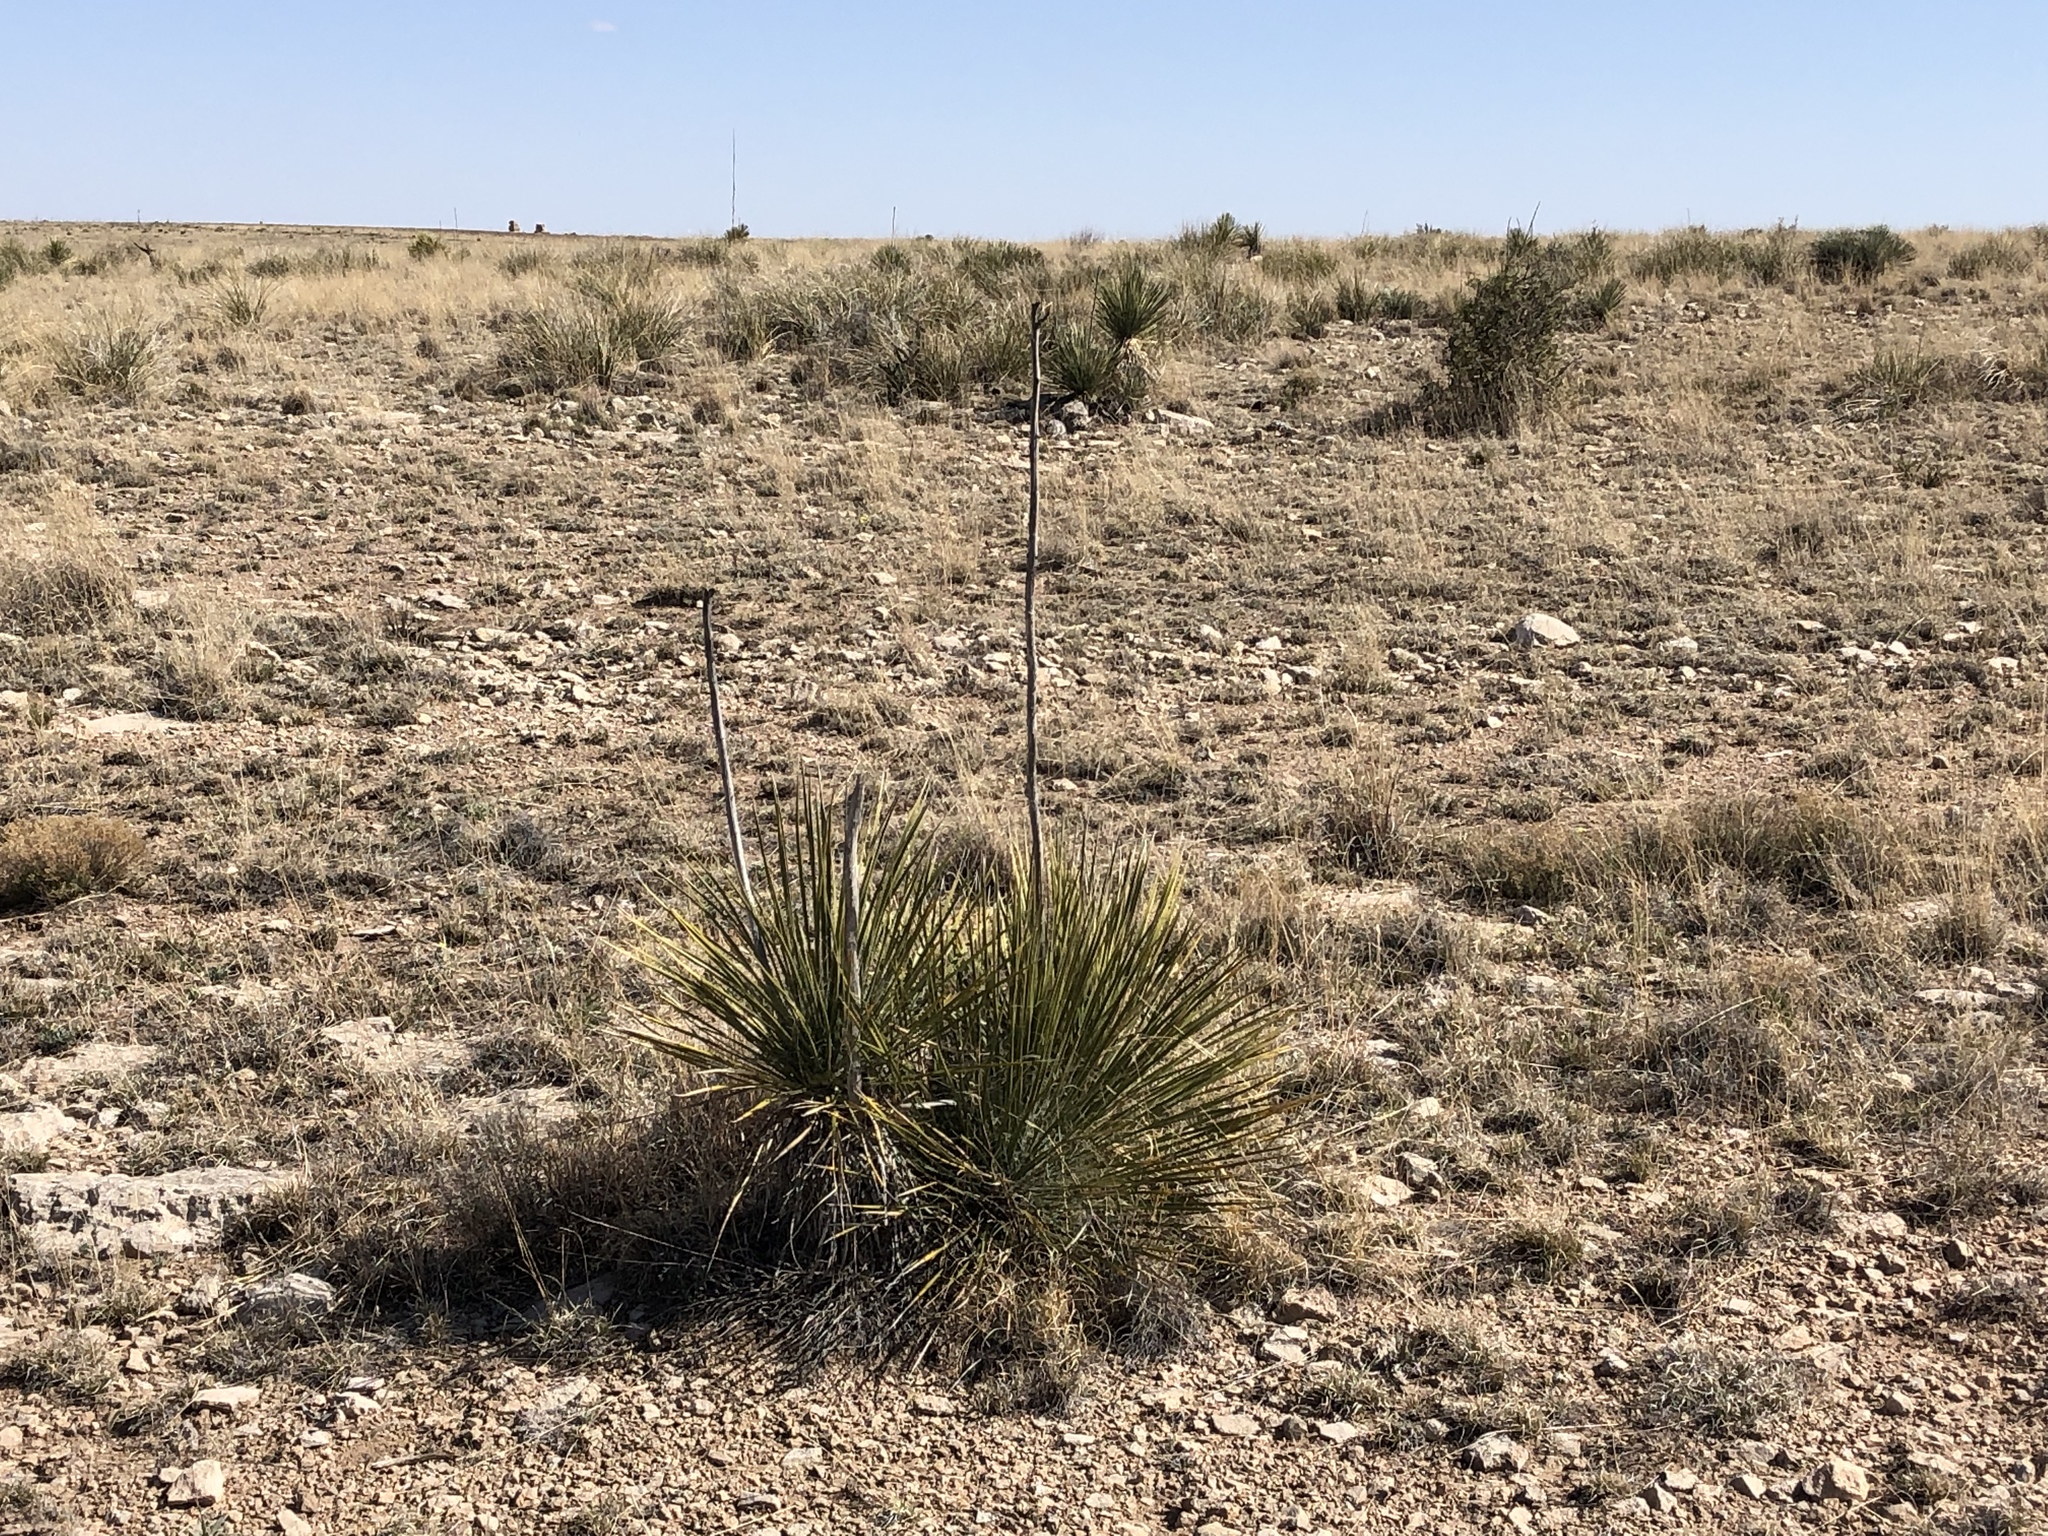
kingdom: Plantae
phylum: Tracheophyta
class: Liliopsida
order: Asparagales
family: Asparagaceae
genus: Yucca
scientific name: Yucca elata
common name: Palmella
